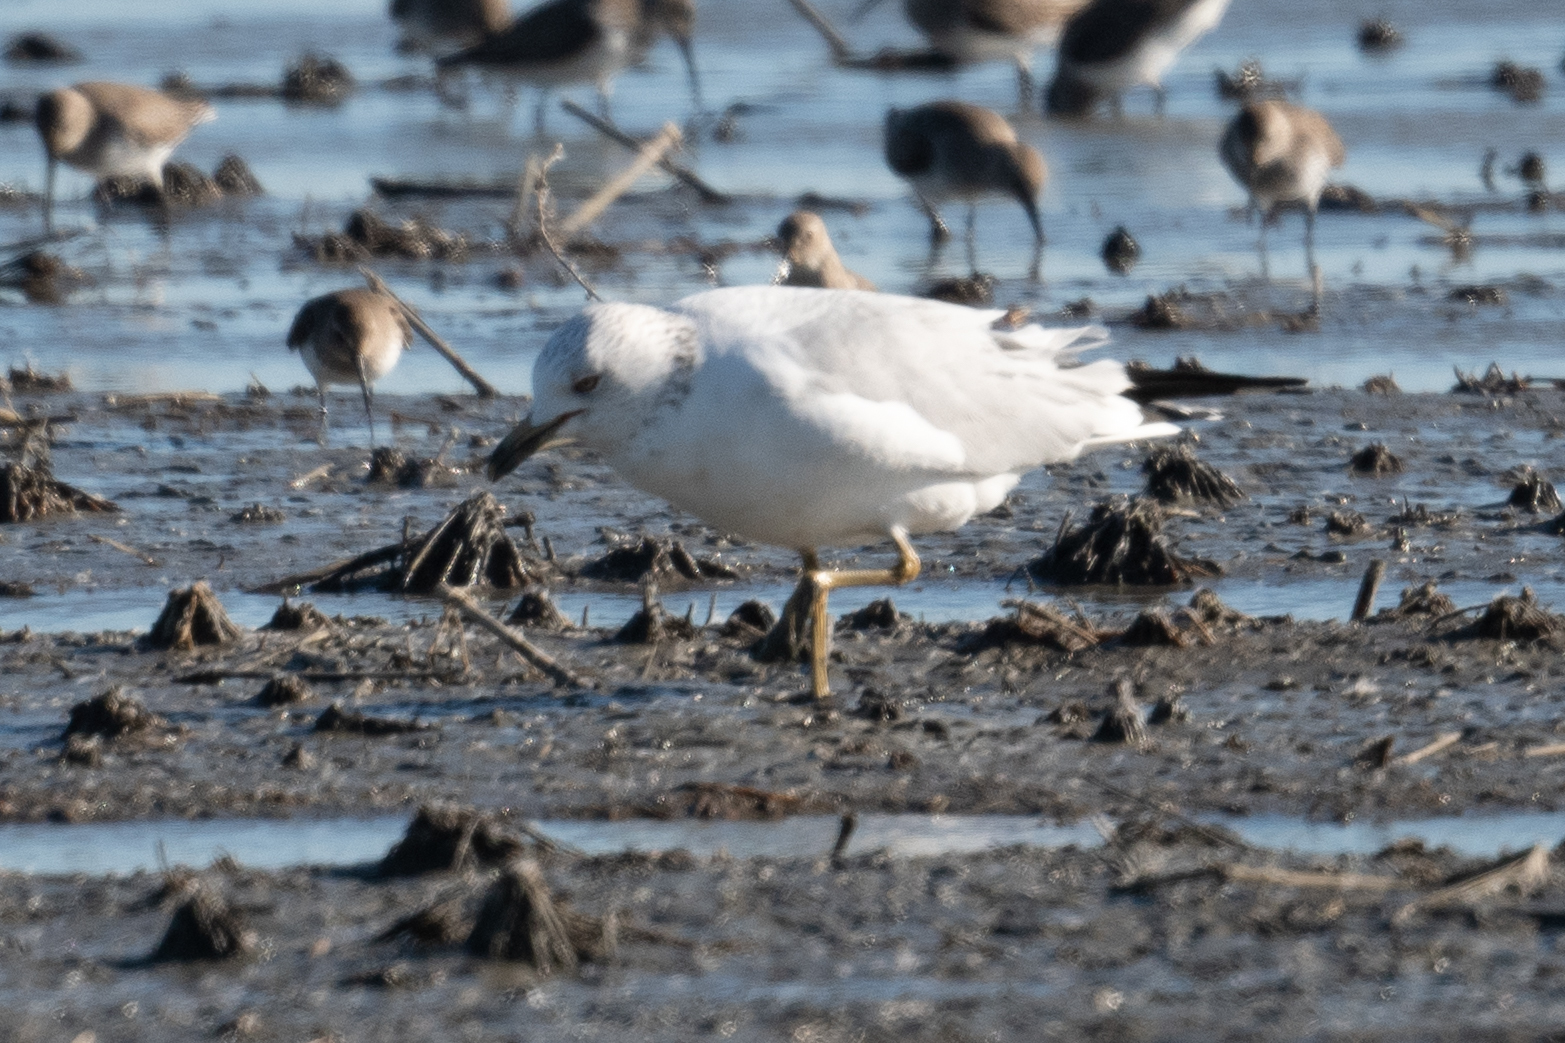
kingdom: Animalia
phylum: Chordata
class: Aves
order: Charadriiformes
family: Laridae
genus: Larus
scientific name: Larus delawarensis
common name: Ring-billed gull
